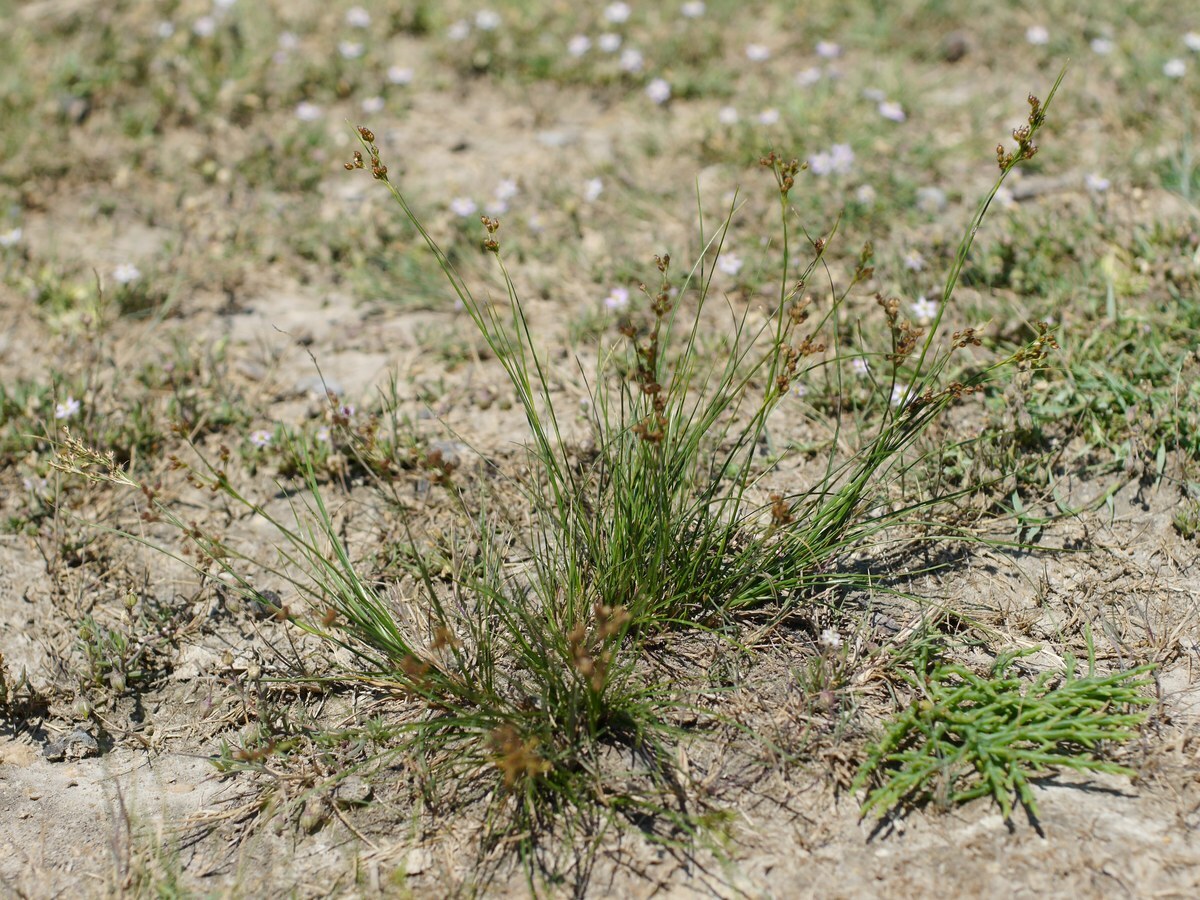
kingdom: Plantae
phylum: Tracheophyta
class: Liliopsida
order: Poales
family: Juncaceae
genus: Juncus
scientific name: Juncus compressus
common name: Round-fruited rush
